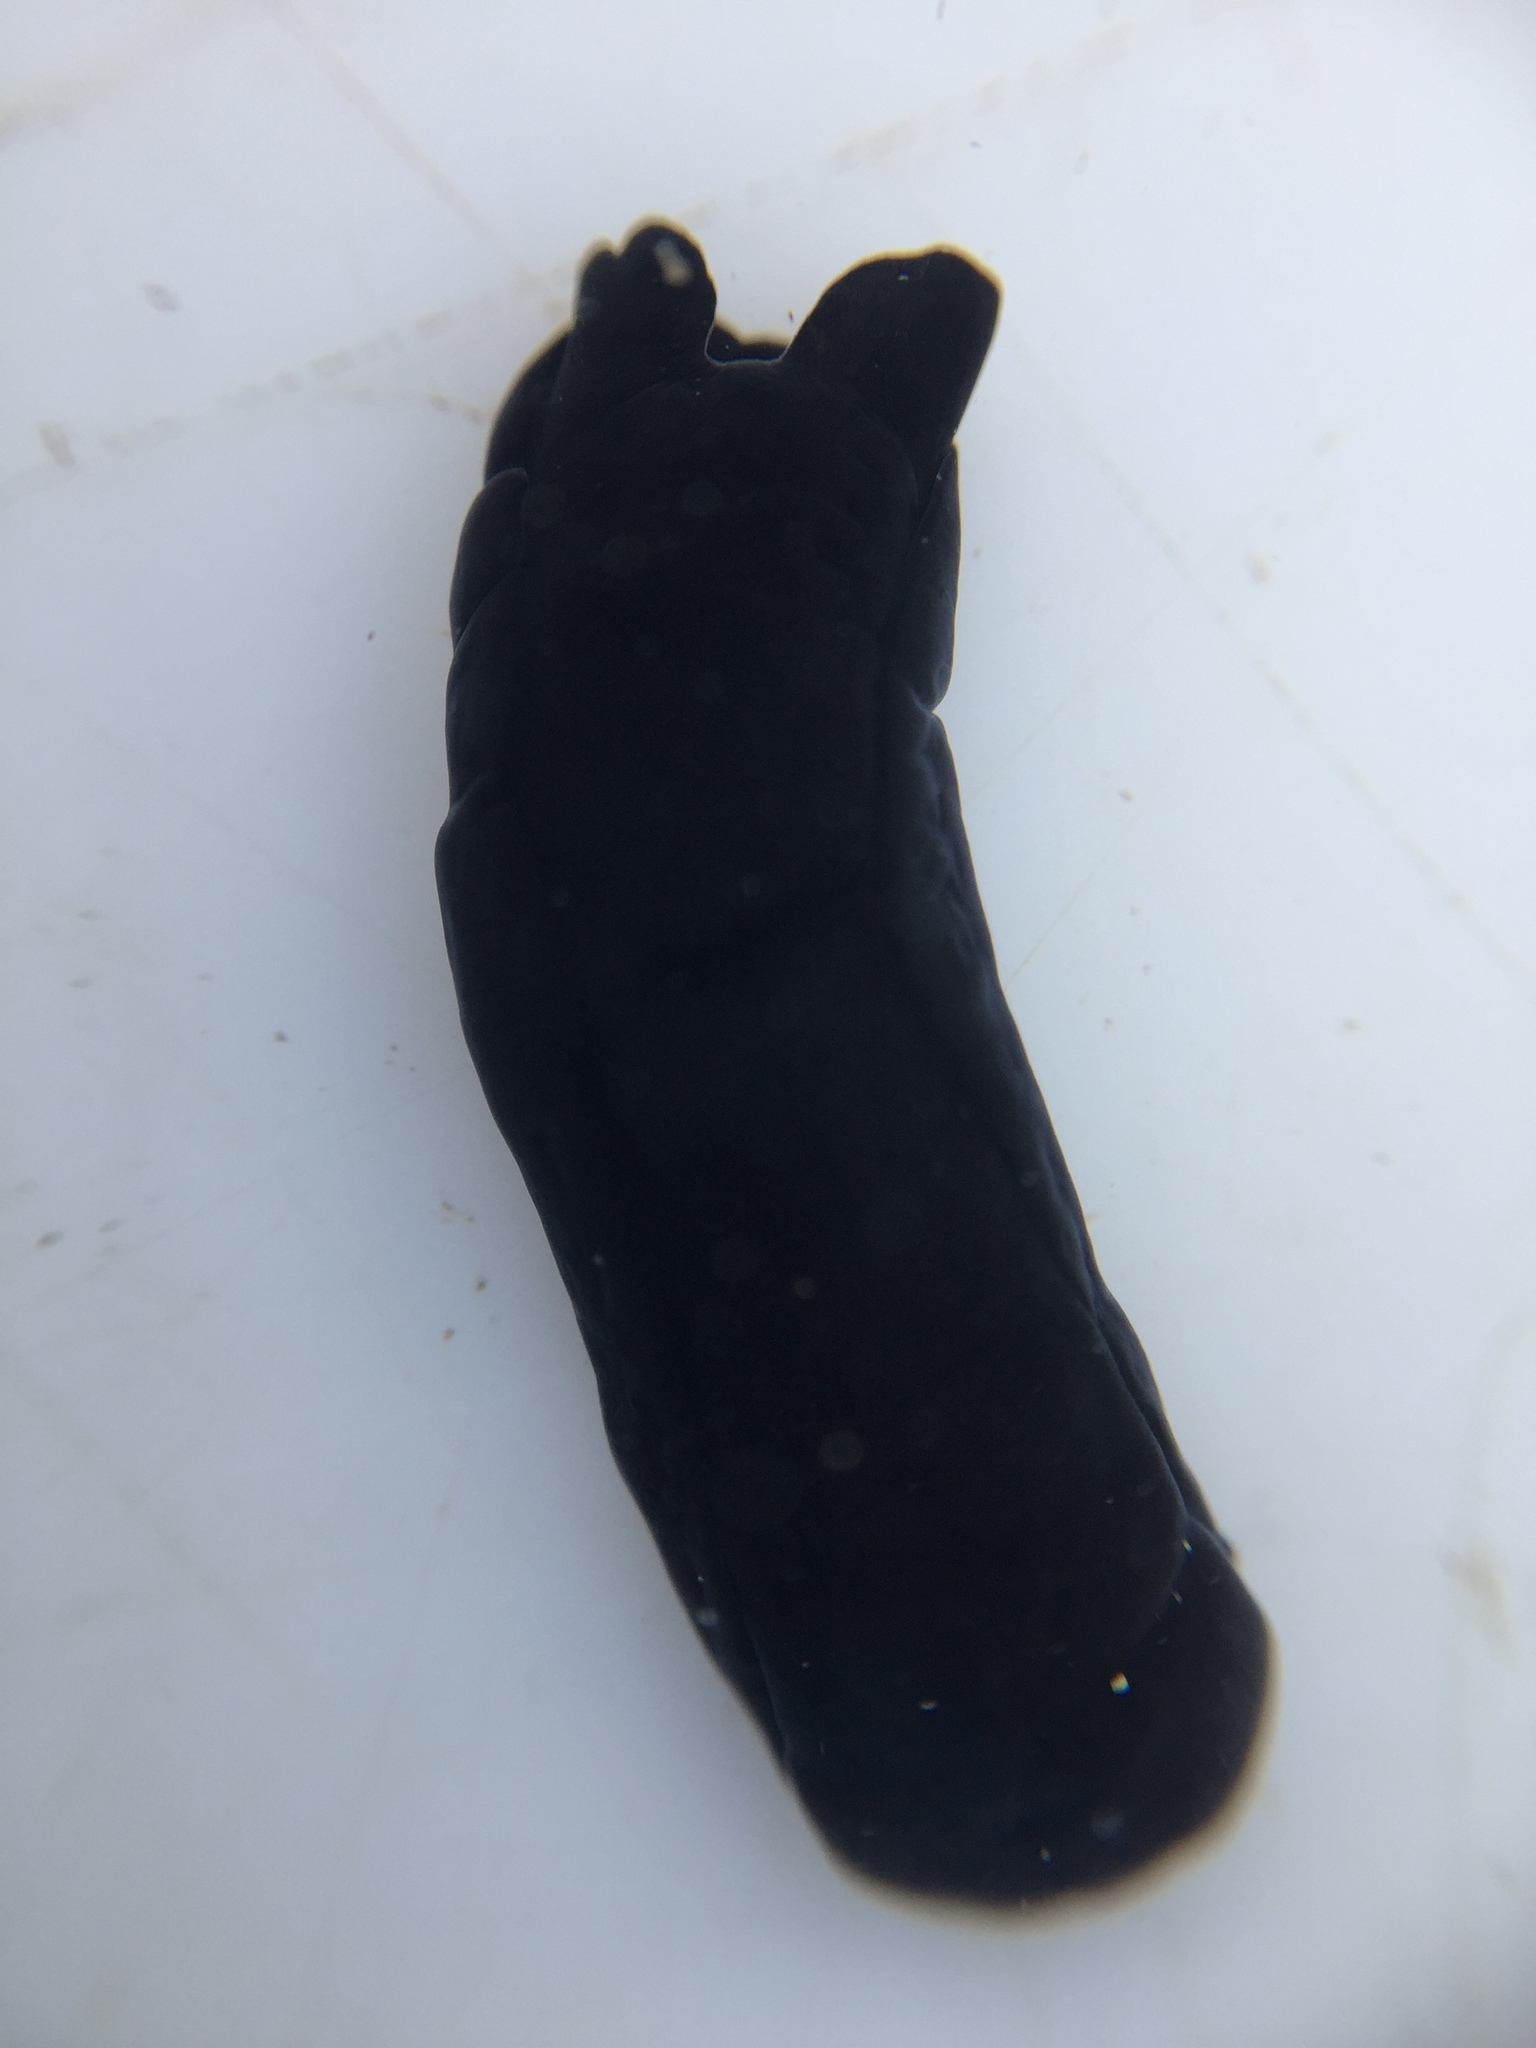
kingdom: Animalia
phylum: Mollusca
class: Gastropoda
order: Cephalaspidea
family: Aglajidae
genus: Melanochlamys
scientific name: Melanochlamys cylindrica
